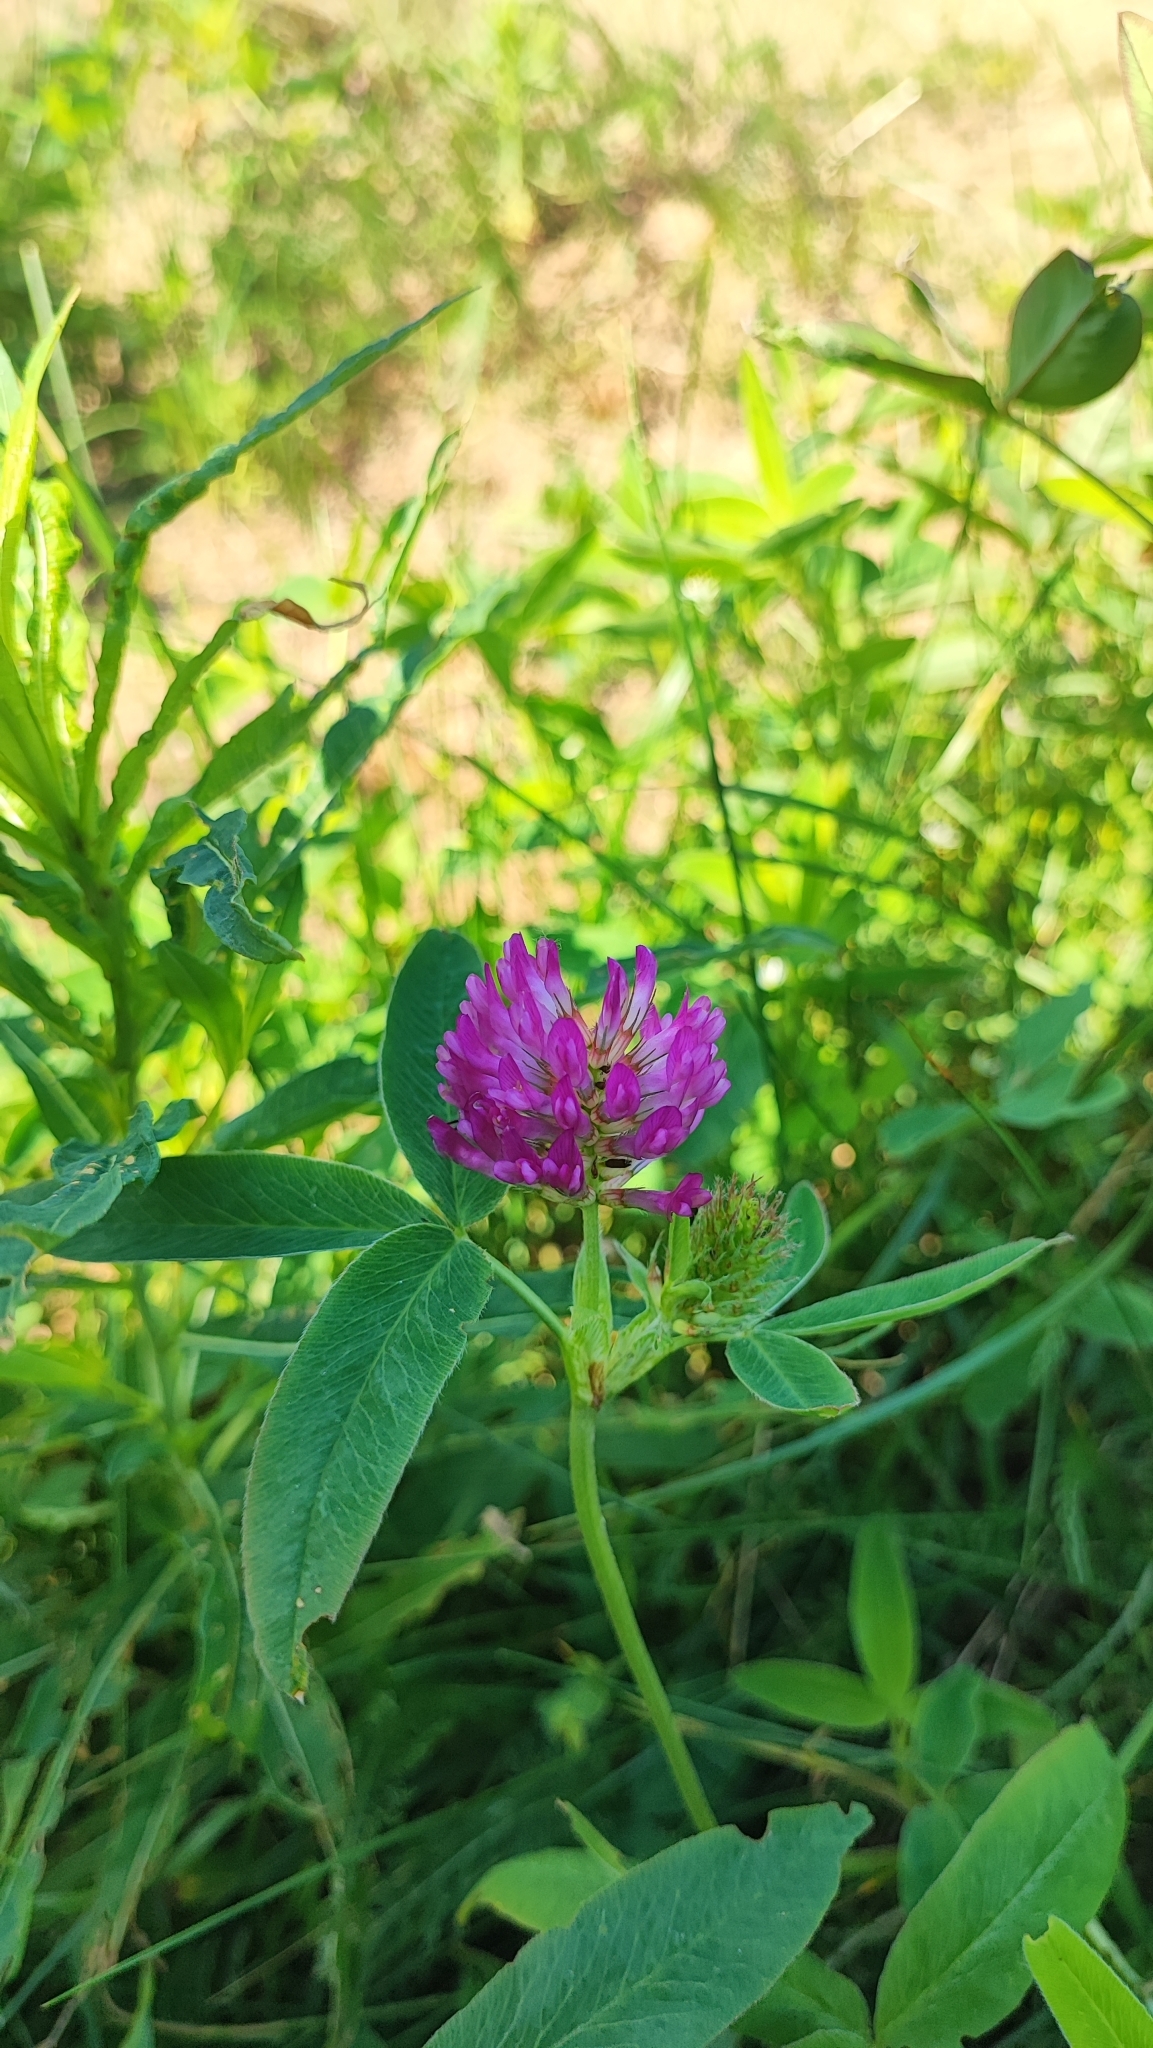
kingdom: Plantae
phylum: Tracheophyta
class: Magnoliopsida
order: Fabales
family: Fabaceae
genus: Trifolium
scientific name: Trifolium medium
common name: Zigzag clover
